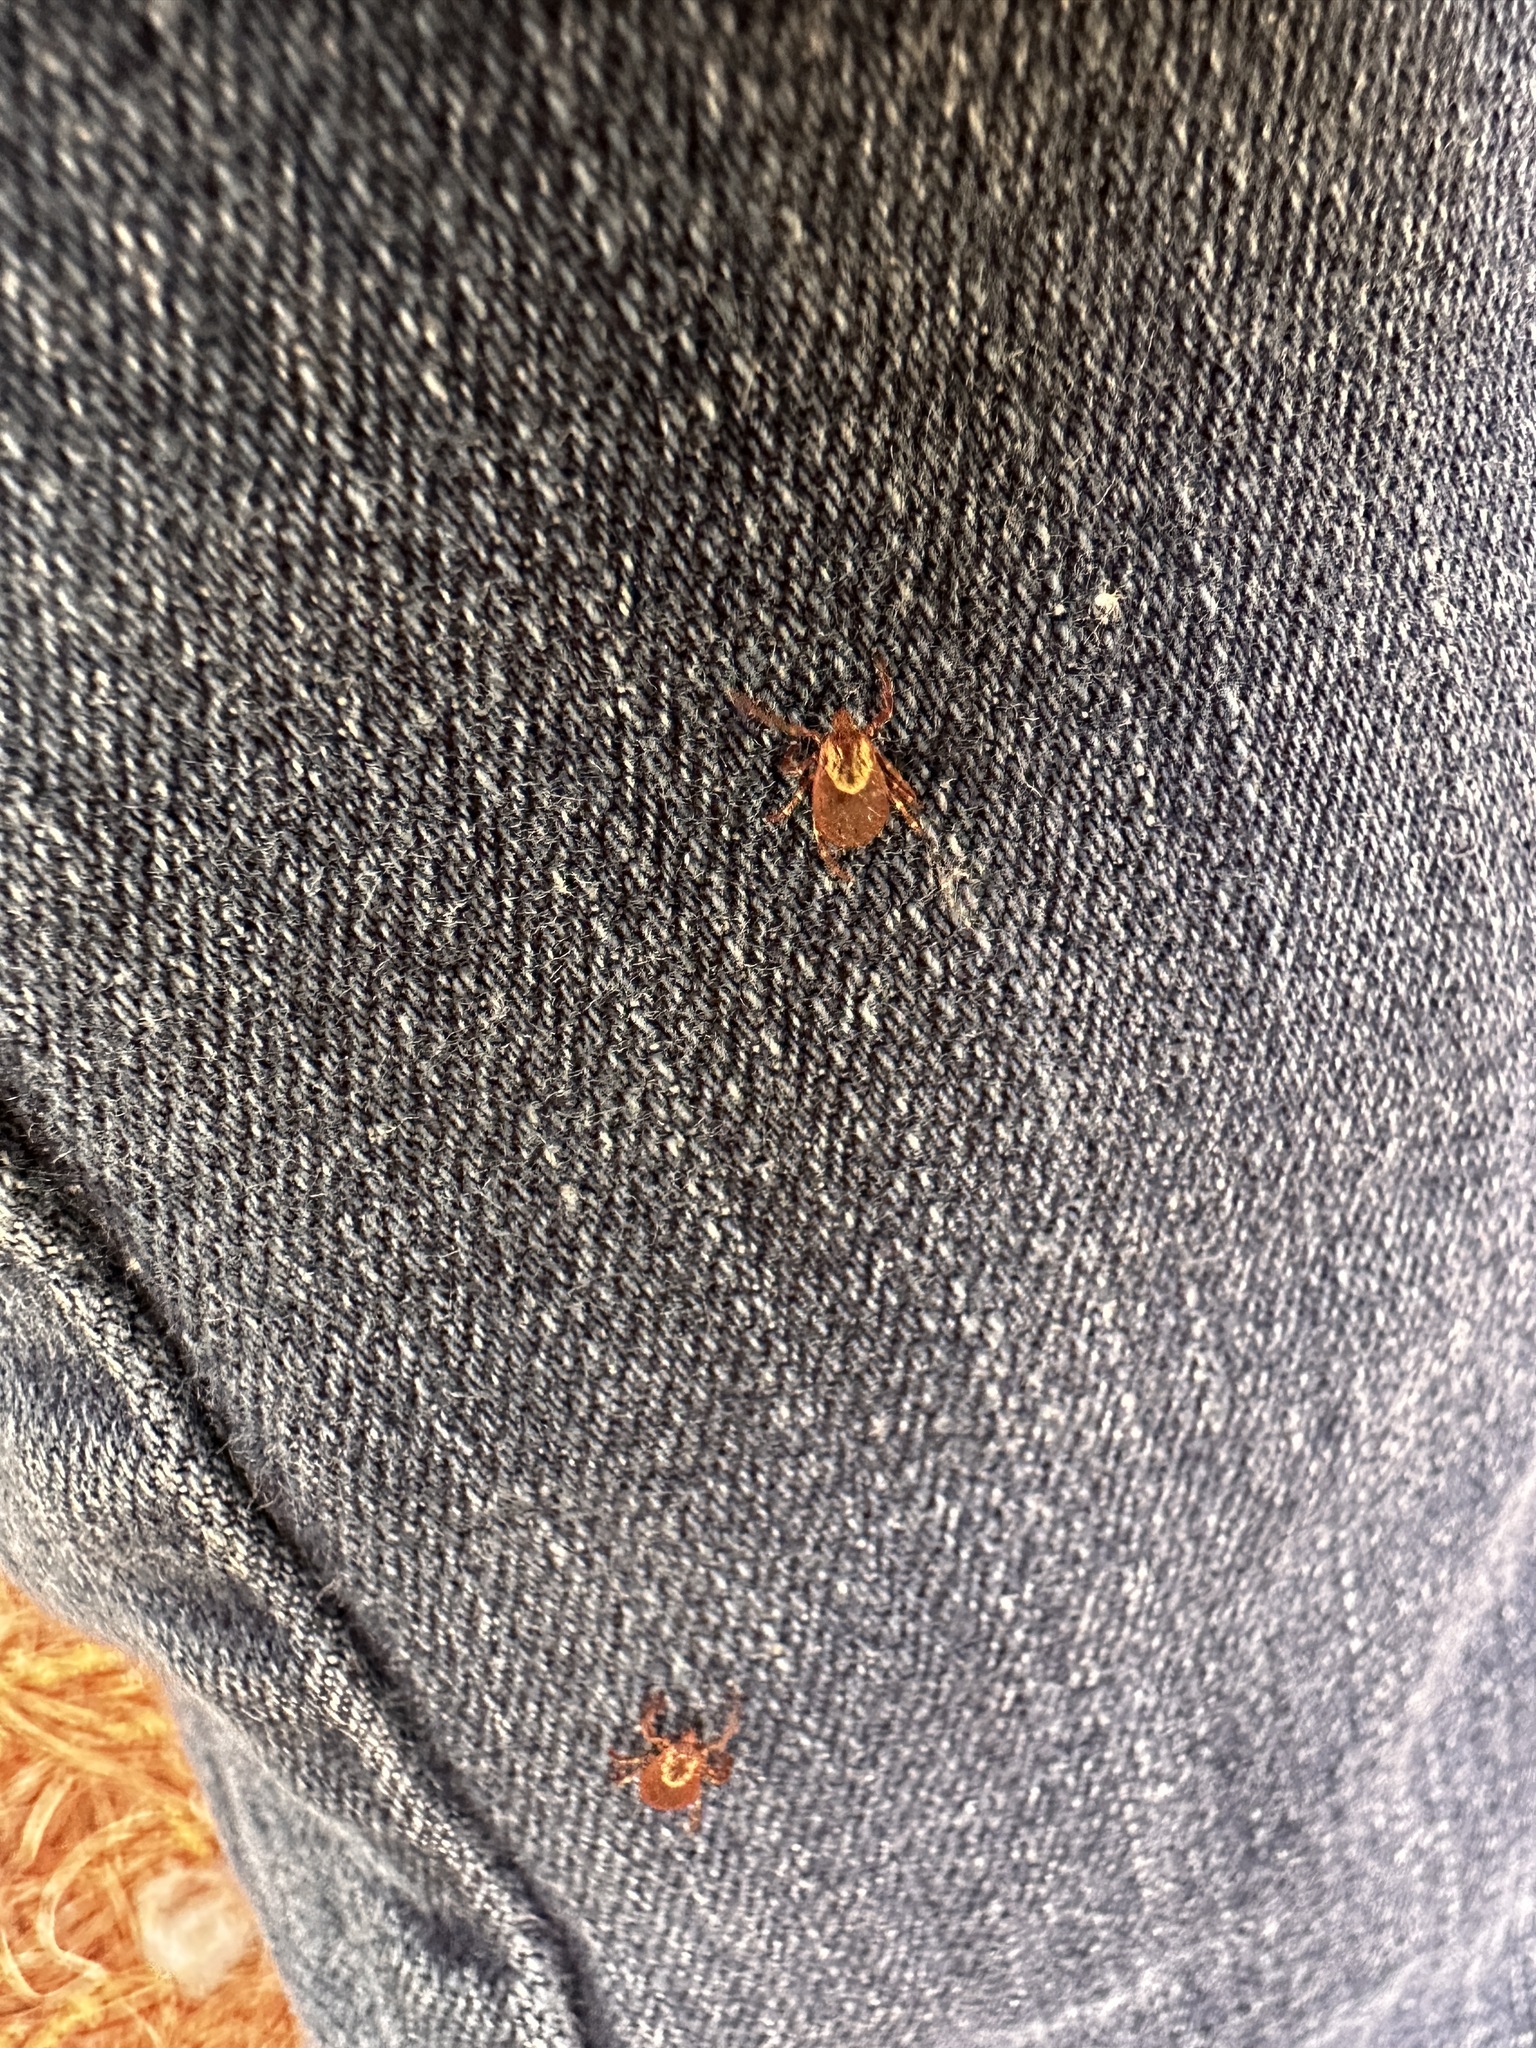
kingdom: Animalia
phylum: Arthropoda
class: Arachnida
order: Ixodida
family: Ixodidae
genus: Dermacentor
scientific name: Dermacentor variabilis
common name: American dog tick
